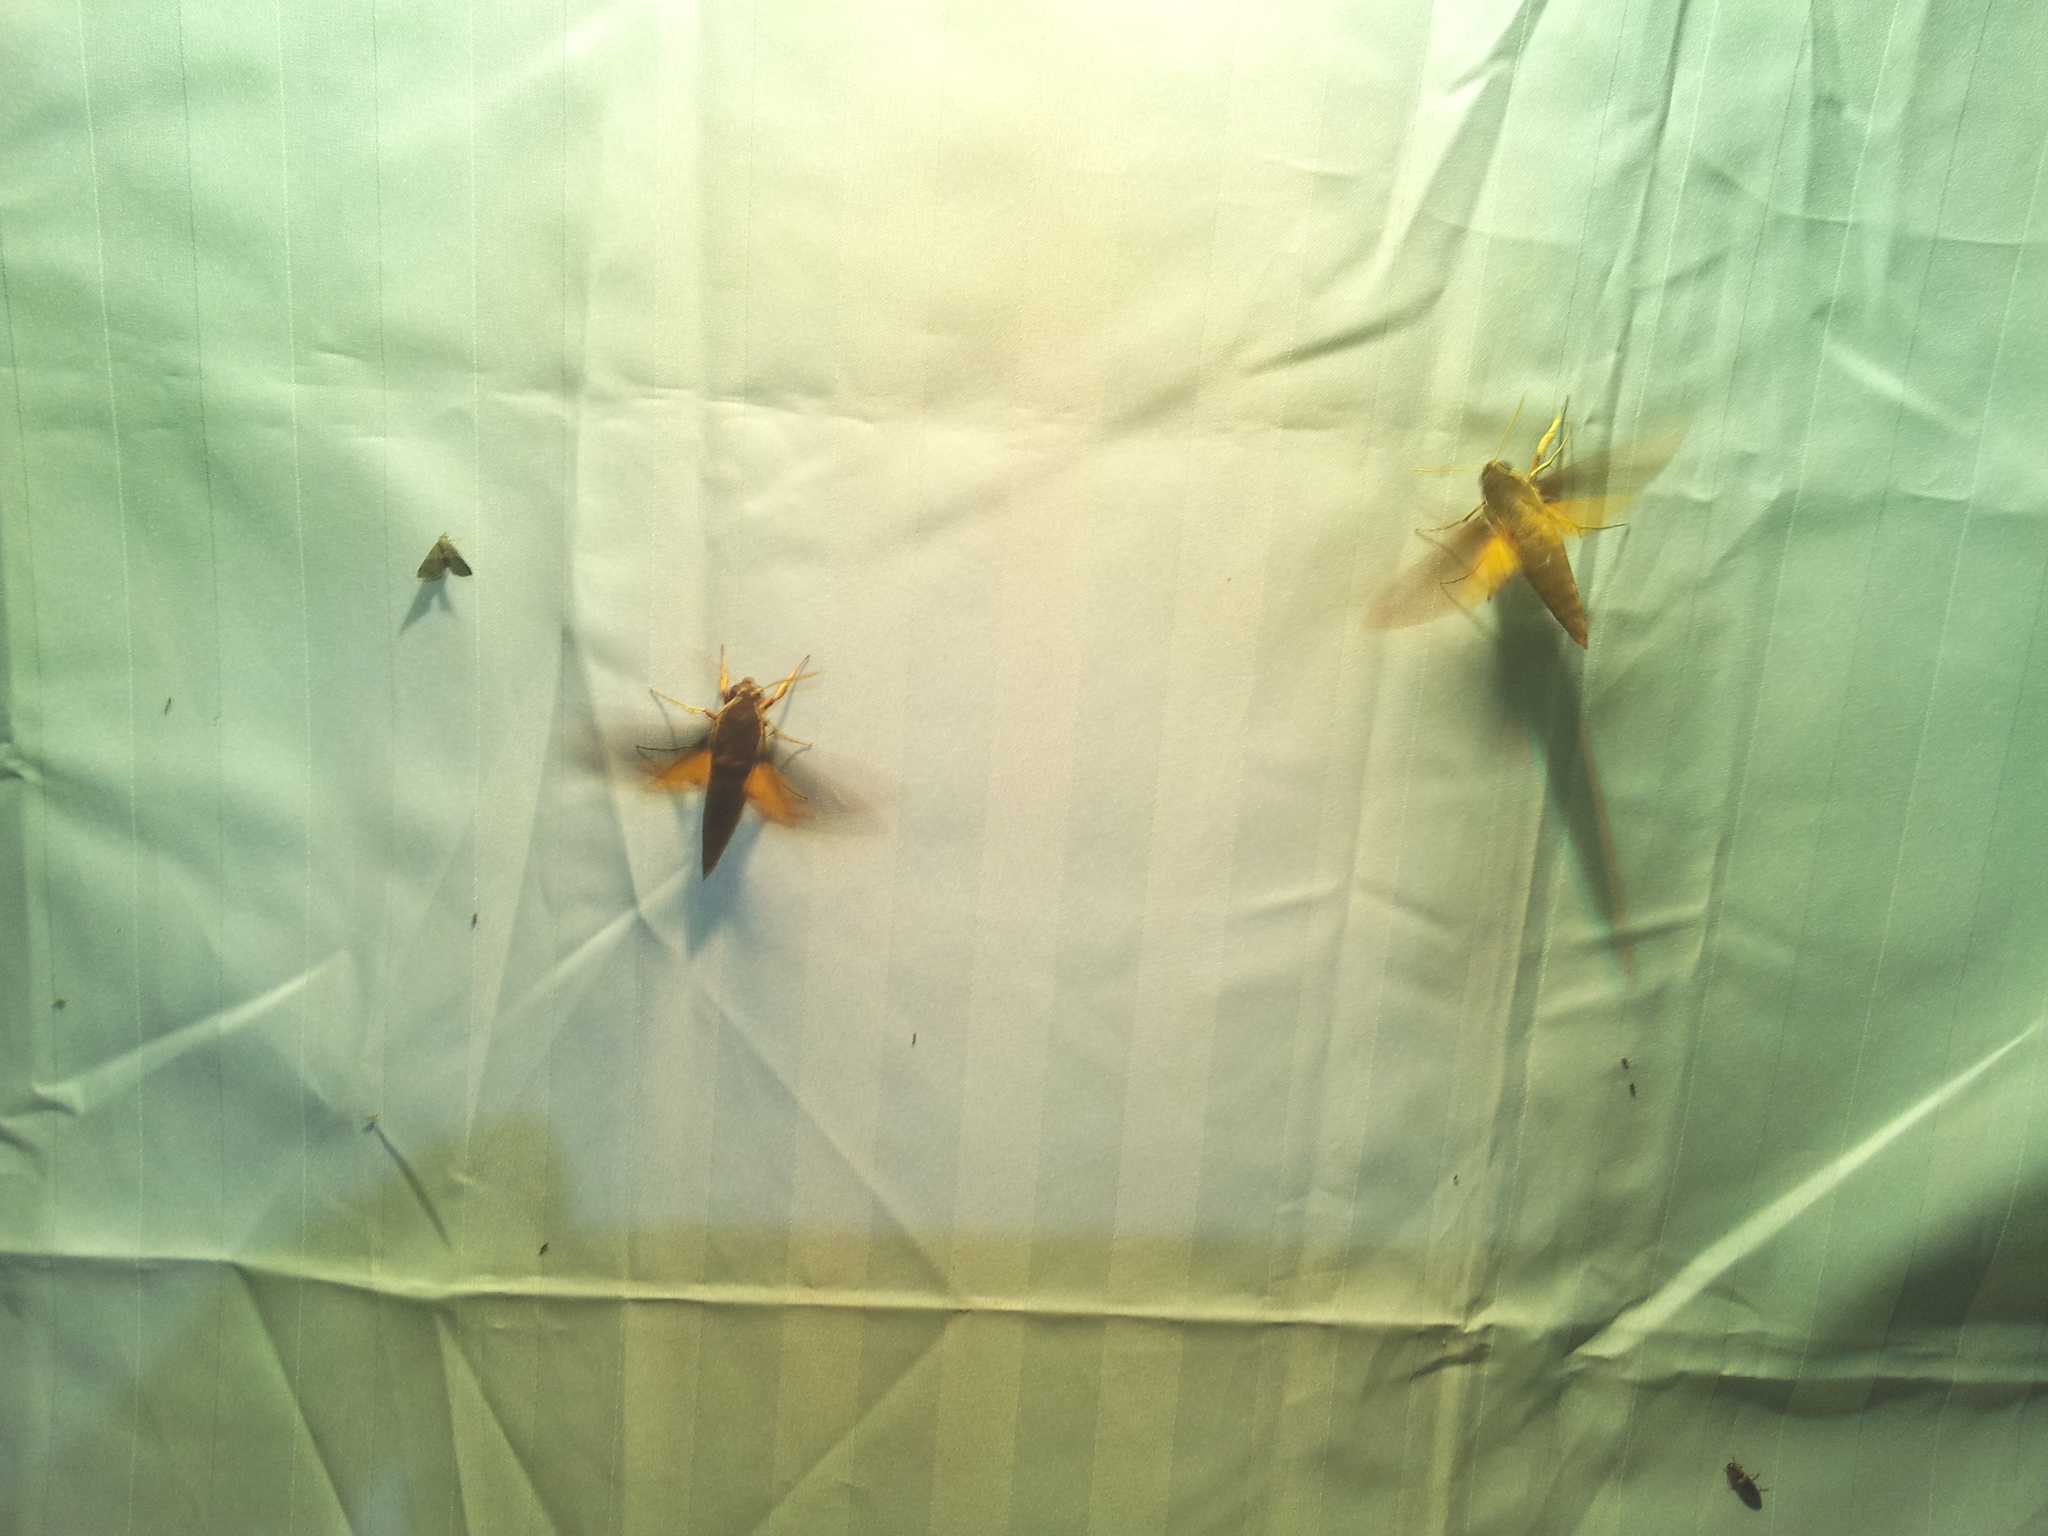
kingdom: Animalia
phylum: Arthropoda
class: Insecta
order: Lepidoptera
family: Sphingidae
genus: Gnathothlibus
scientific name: Gnathothlibus eras
